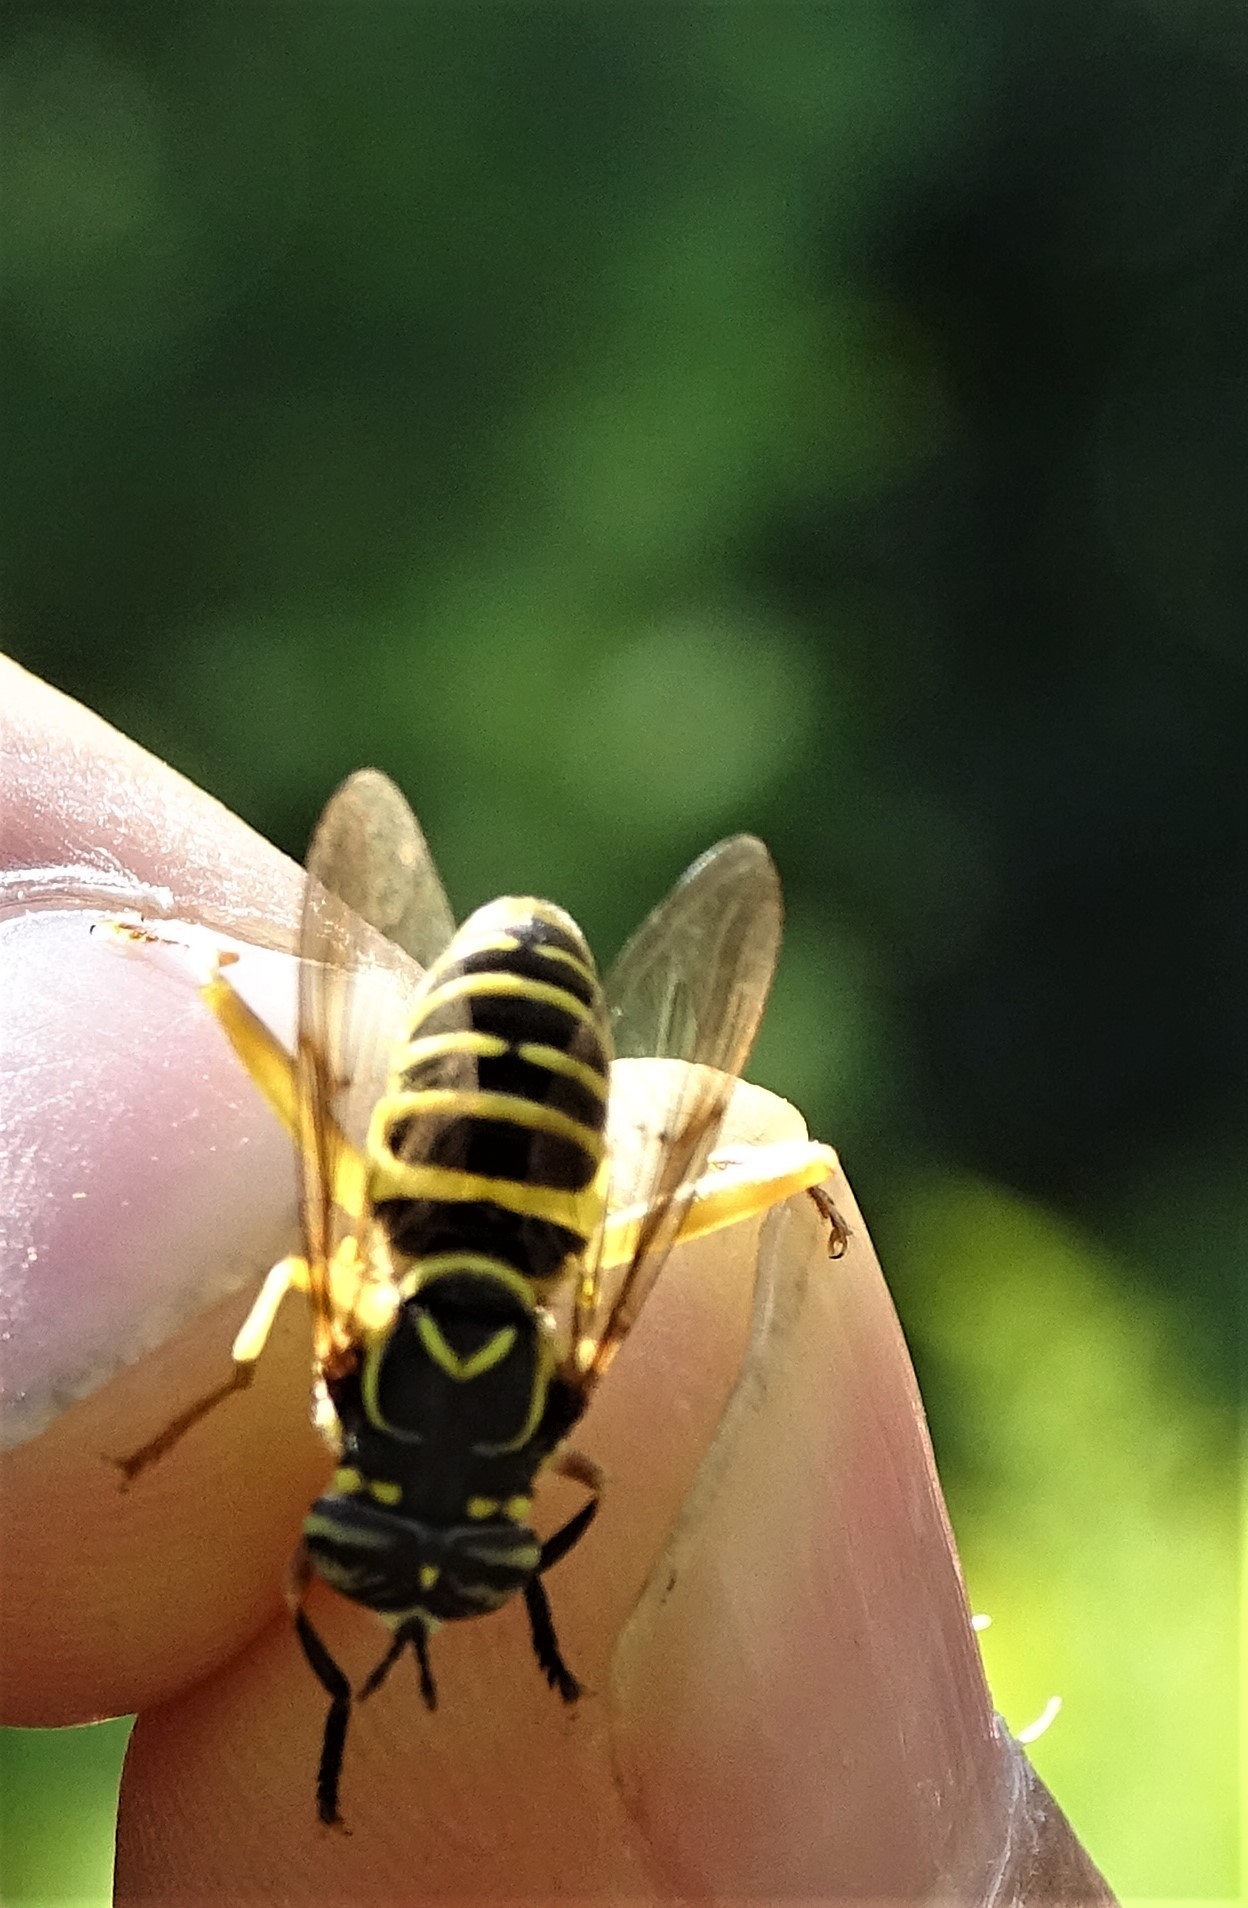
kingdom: Animalia
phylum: Arthropoda
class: Insecta
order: Diptera
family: Syrphidae
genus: Spilomyia
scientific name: Spilomyia longicornis
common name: Eastern hornet fly
